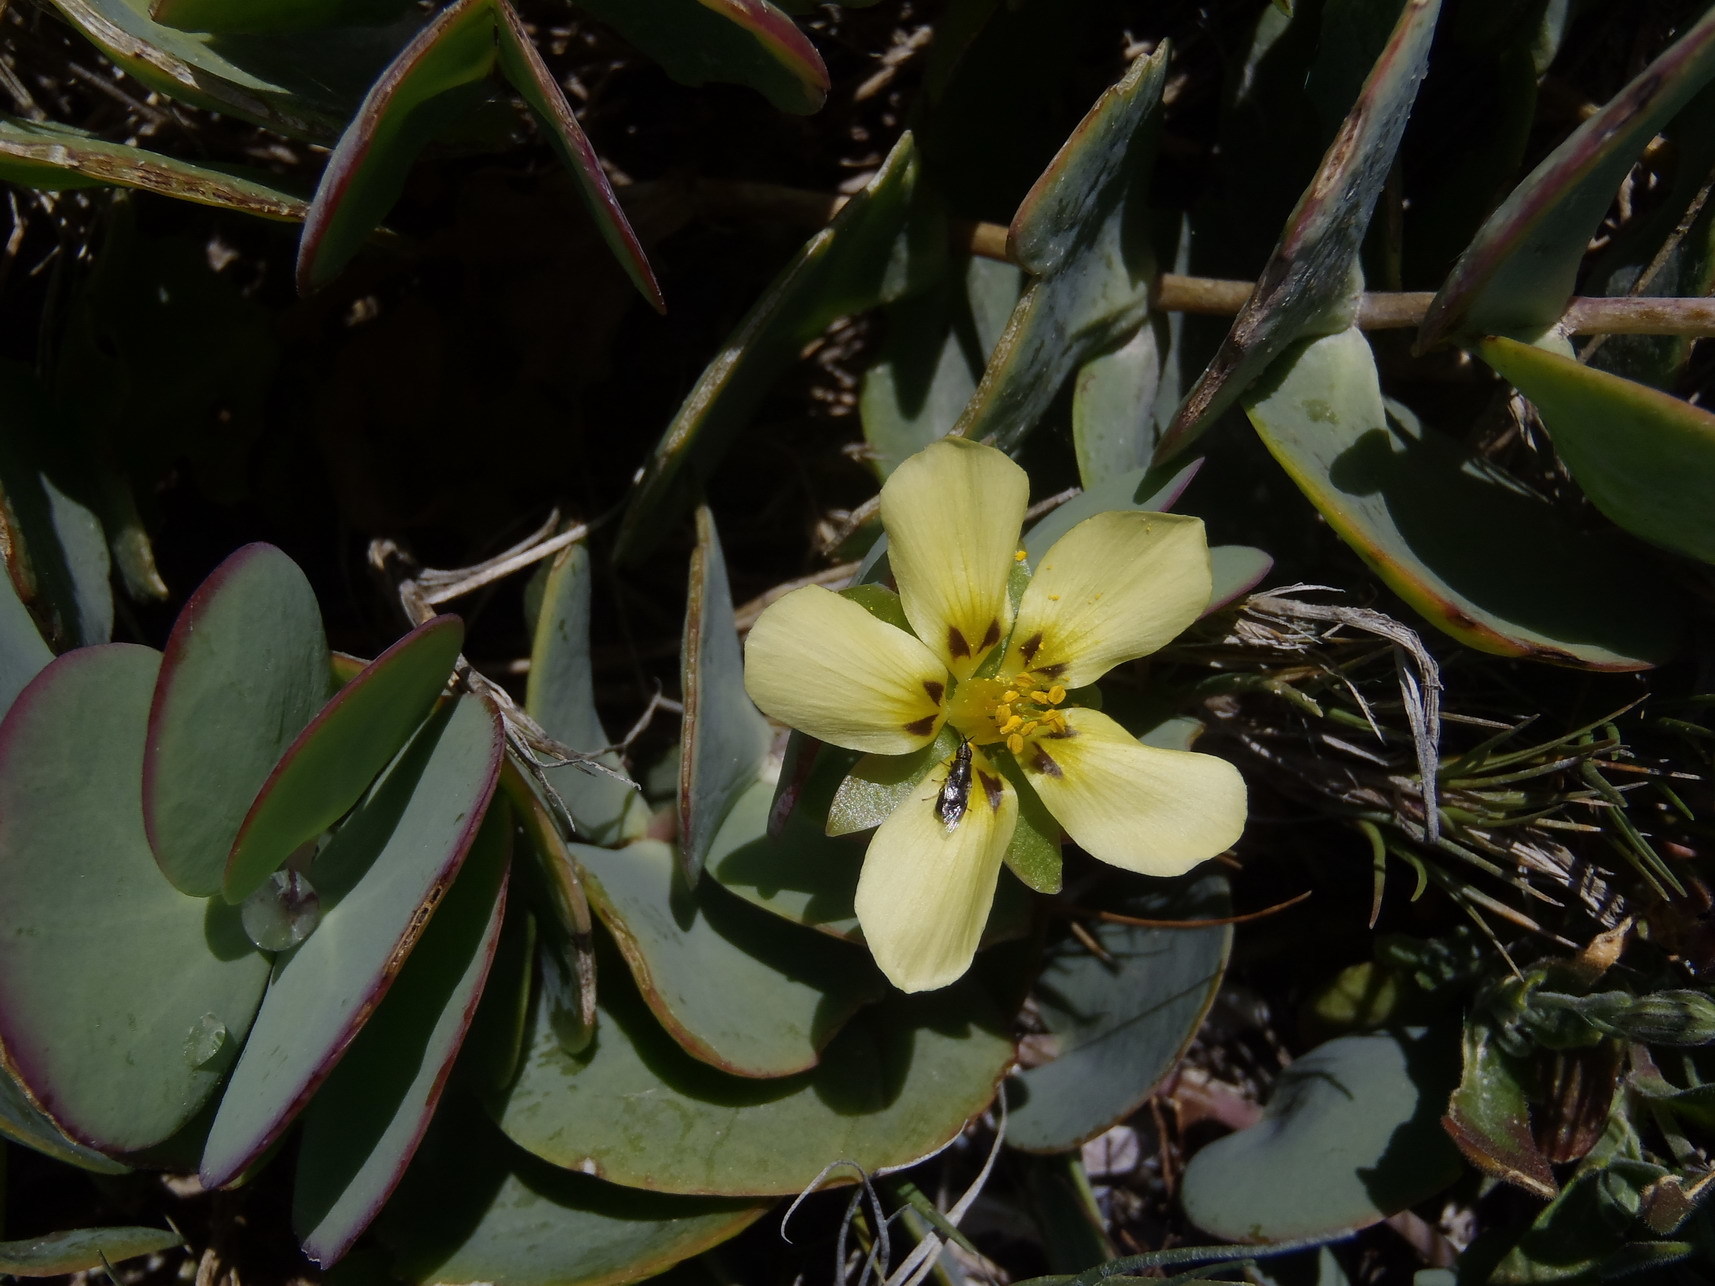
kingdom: Plantae
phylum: Tracheophyta
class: Magnoliopsida
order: Zygophyllales
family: Zygophyllaceae
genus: Roepera
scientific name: Roepera cordifolia
